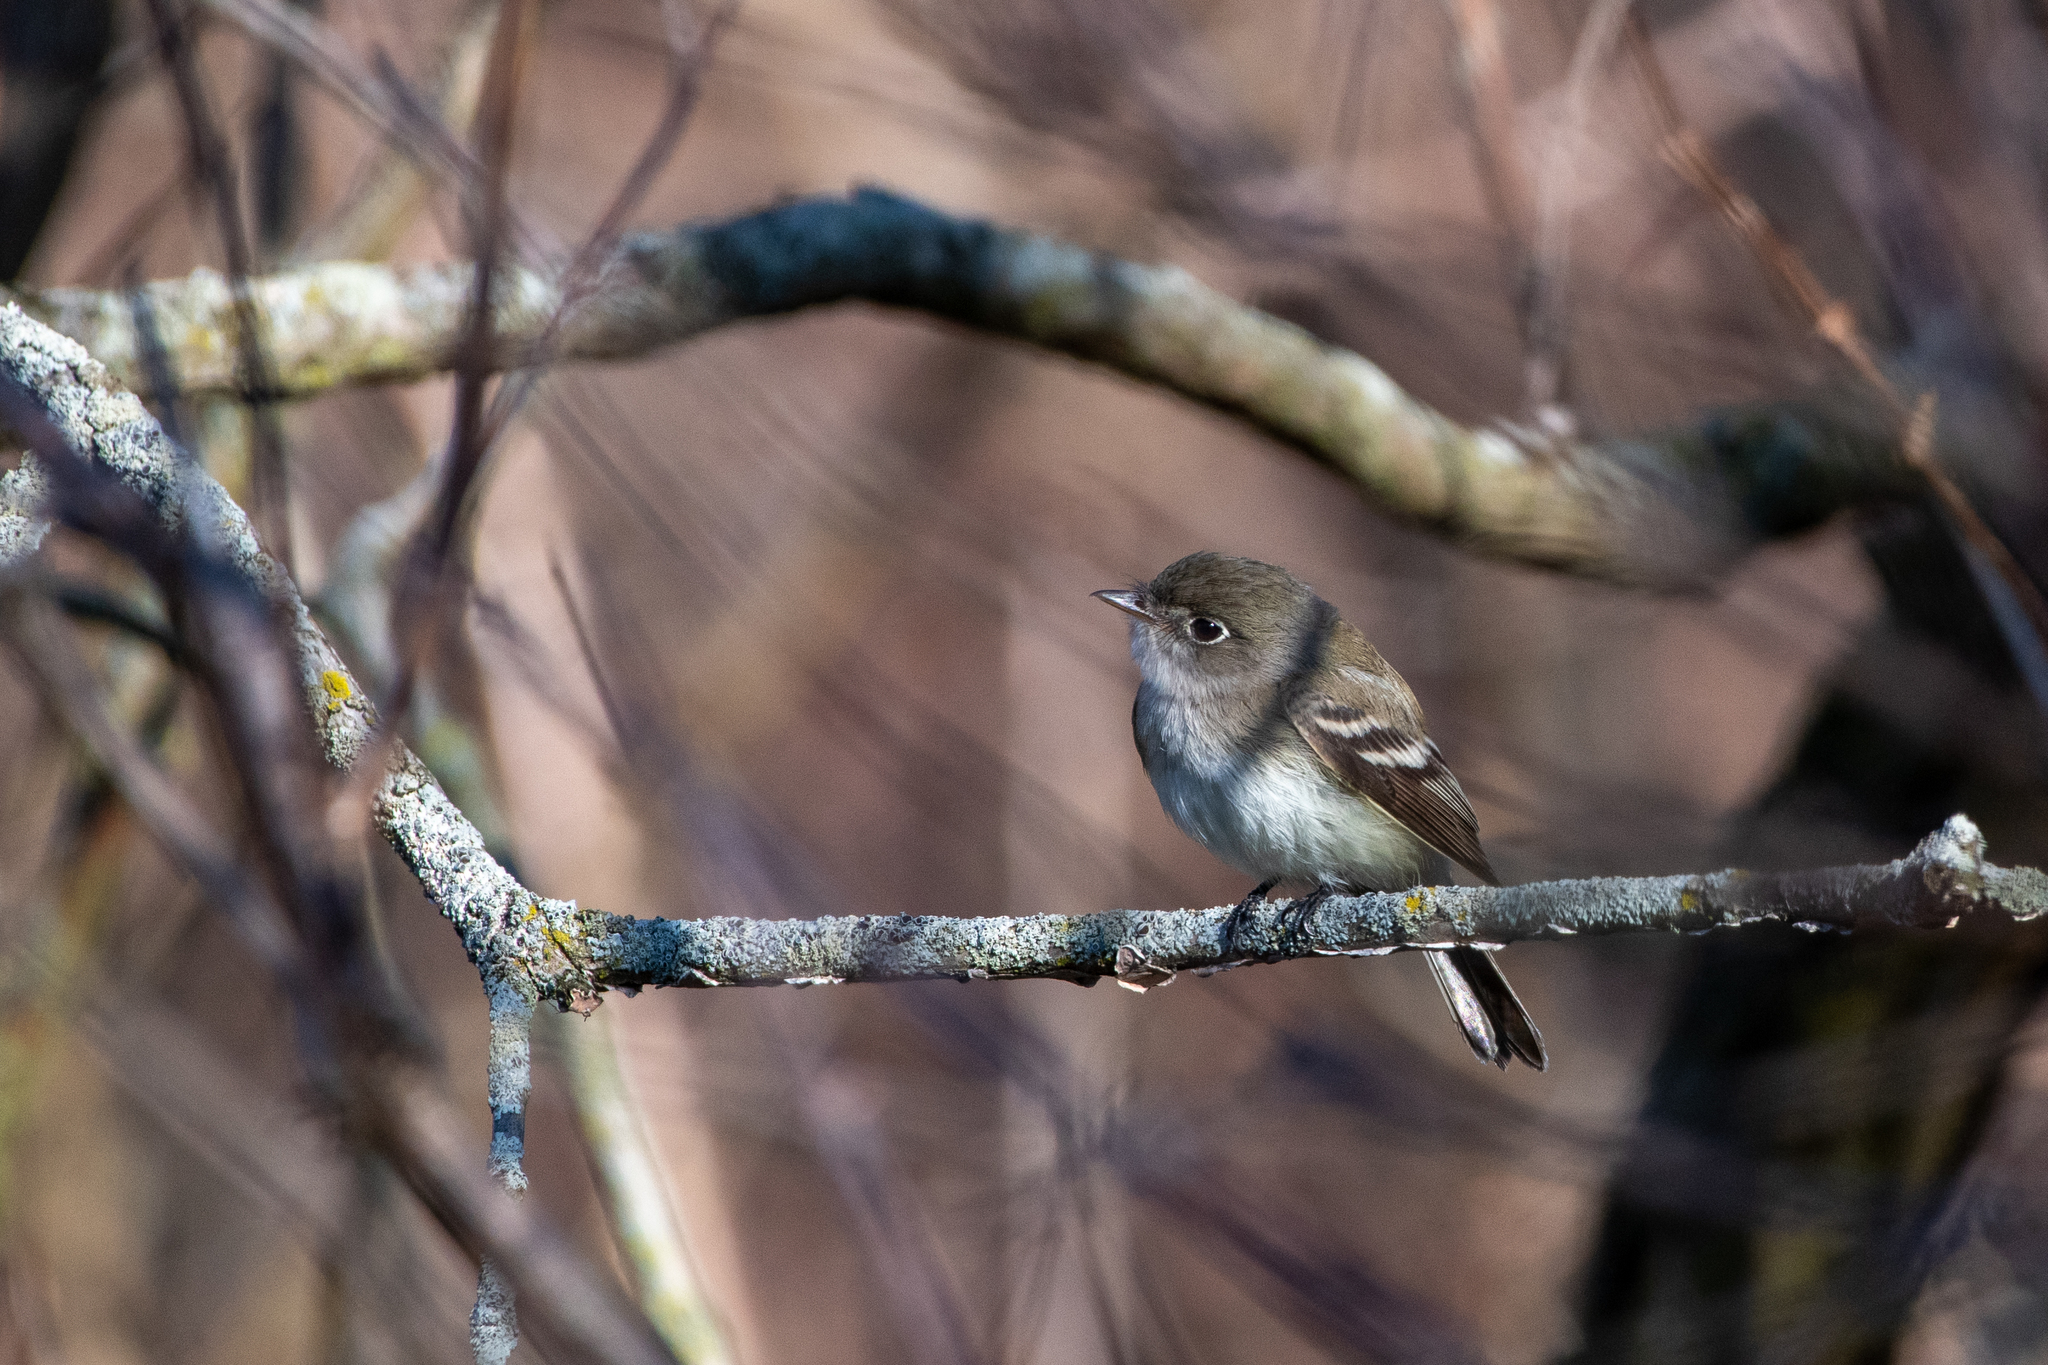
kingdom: Animalia
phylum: Chordata
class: Aves
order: Passeriformes
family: Tyrannidae
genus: Empidonax
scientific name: Empidonax minimus
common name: Least flycatcher
